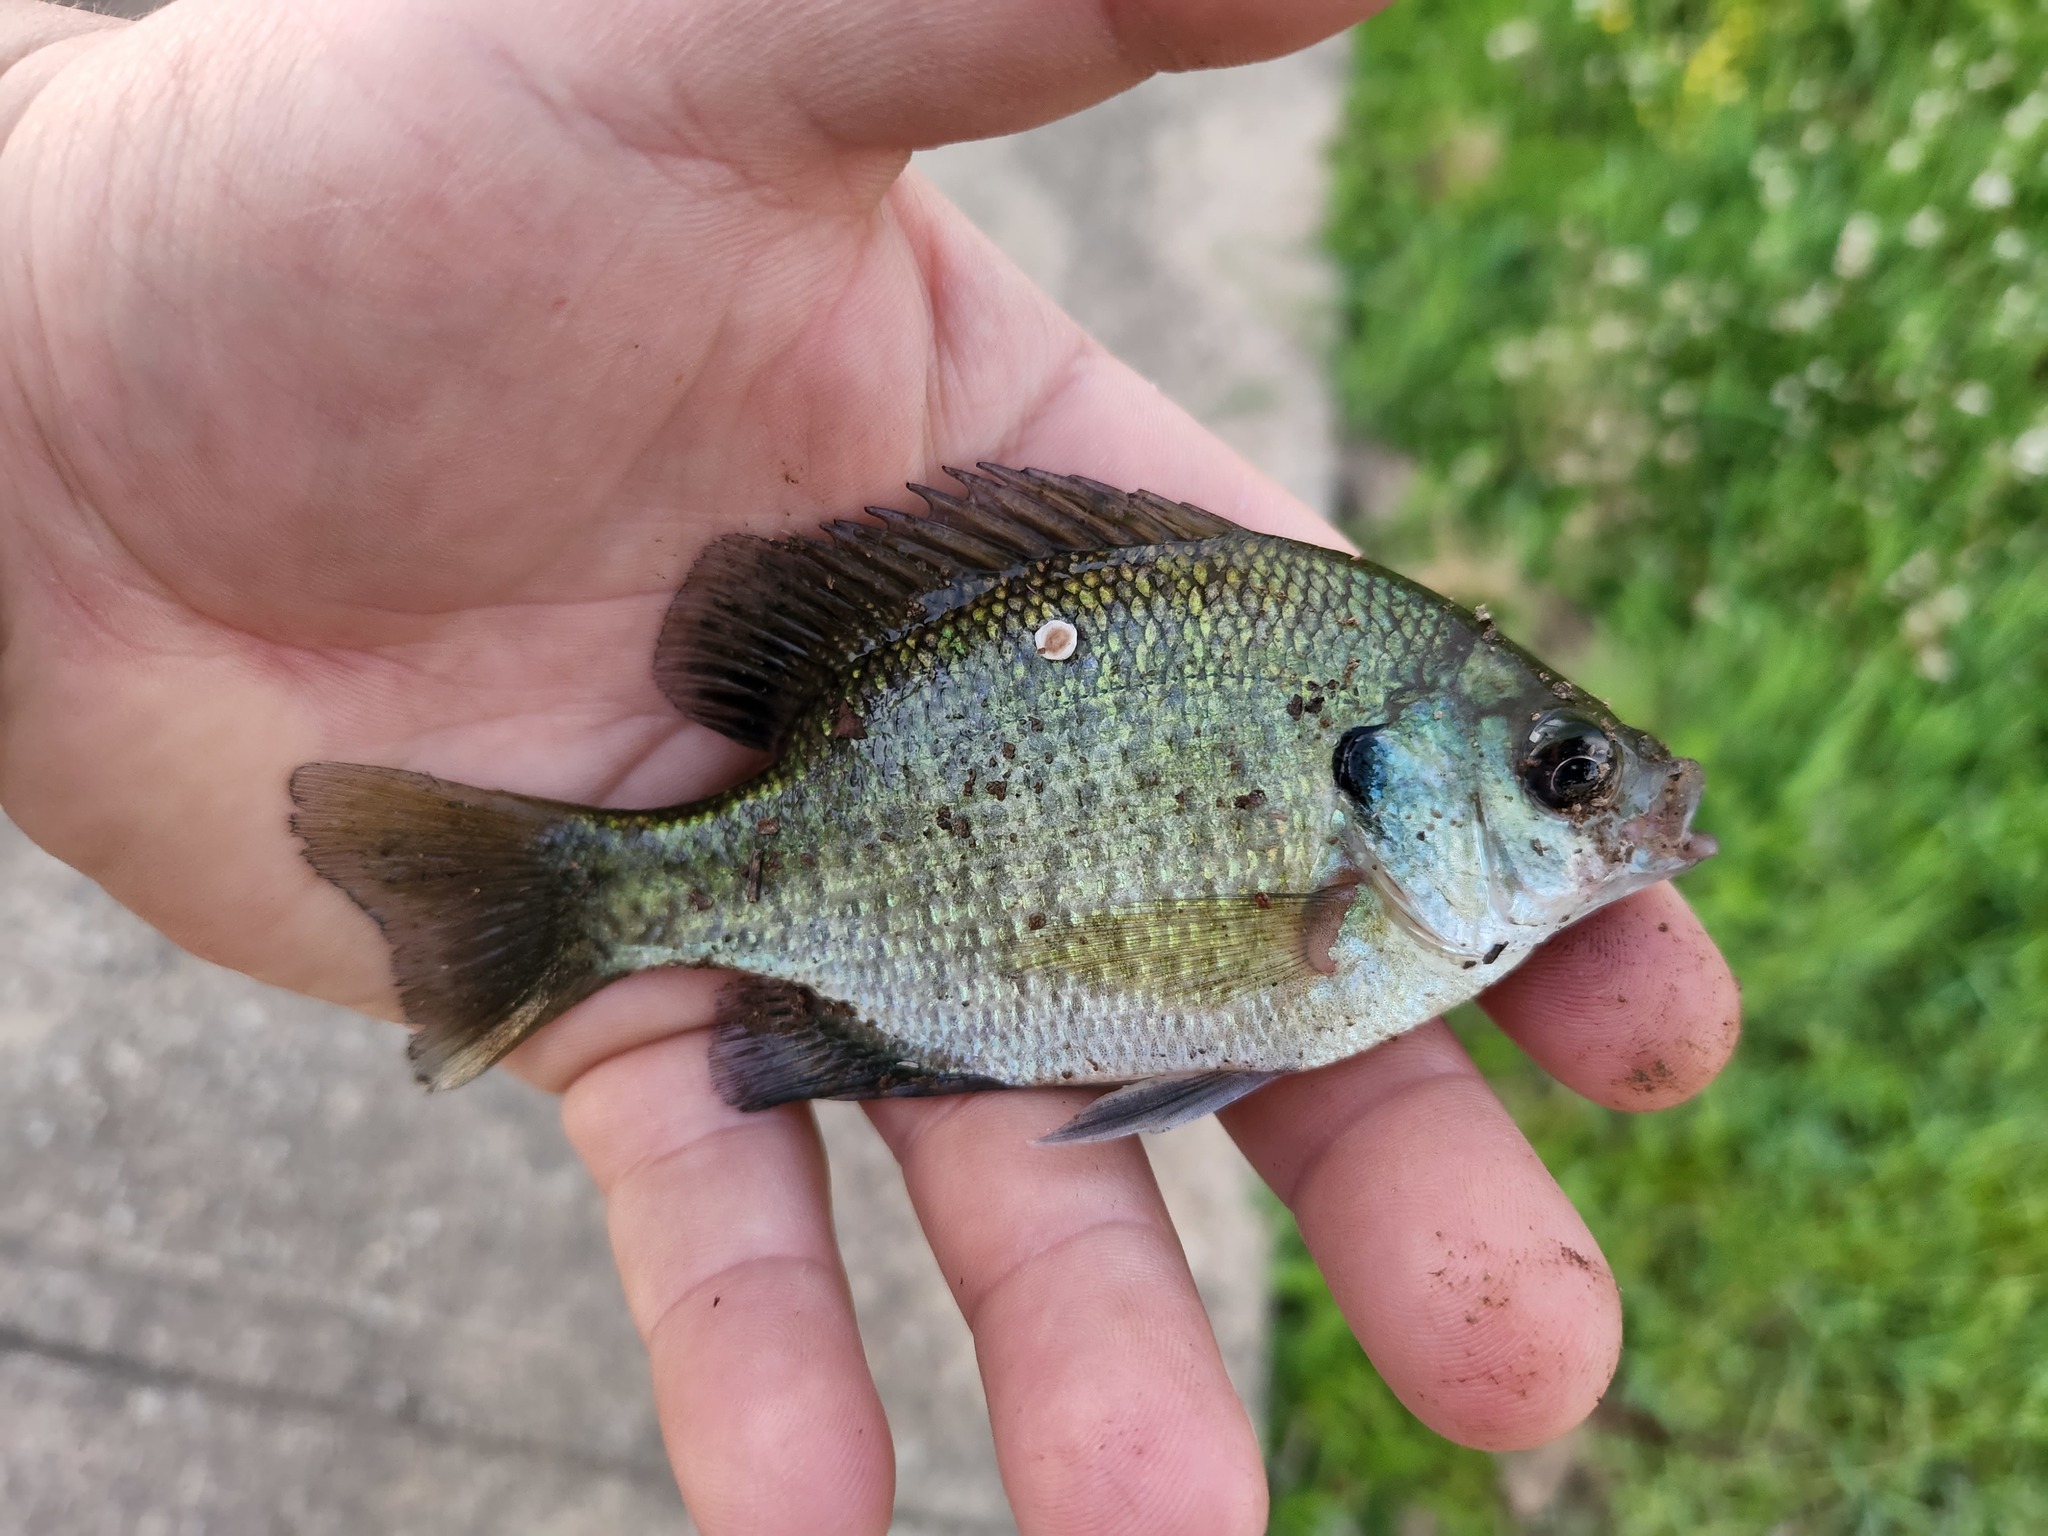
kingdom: Animalia
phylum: Chordata
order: Perciformes
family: Centrarchidae
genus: Lepomis
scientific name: Lepomis macrochirus
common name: Bluegill
